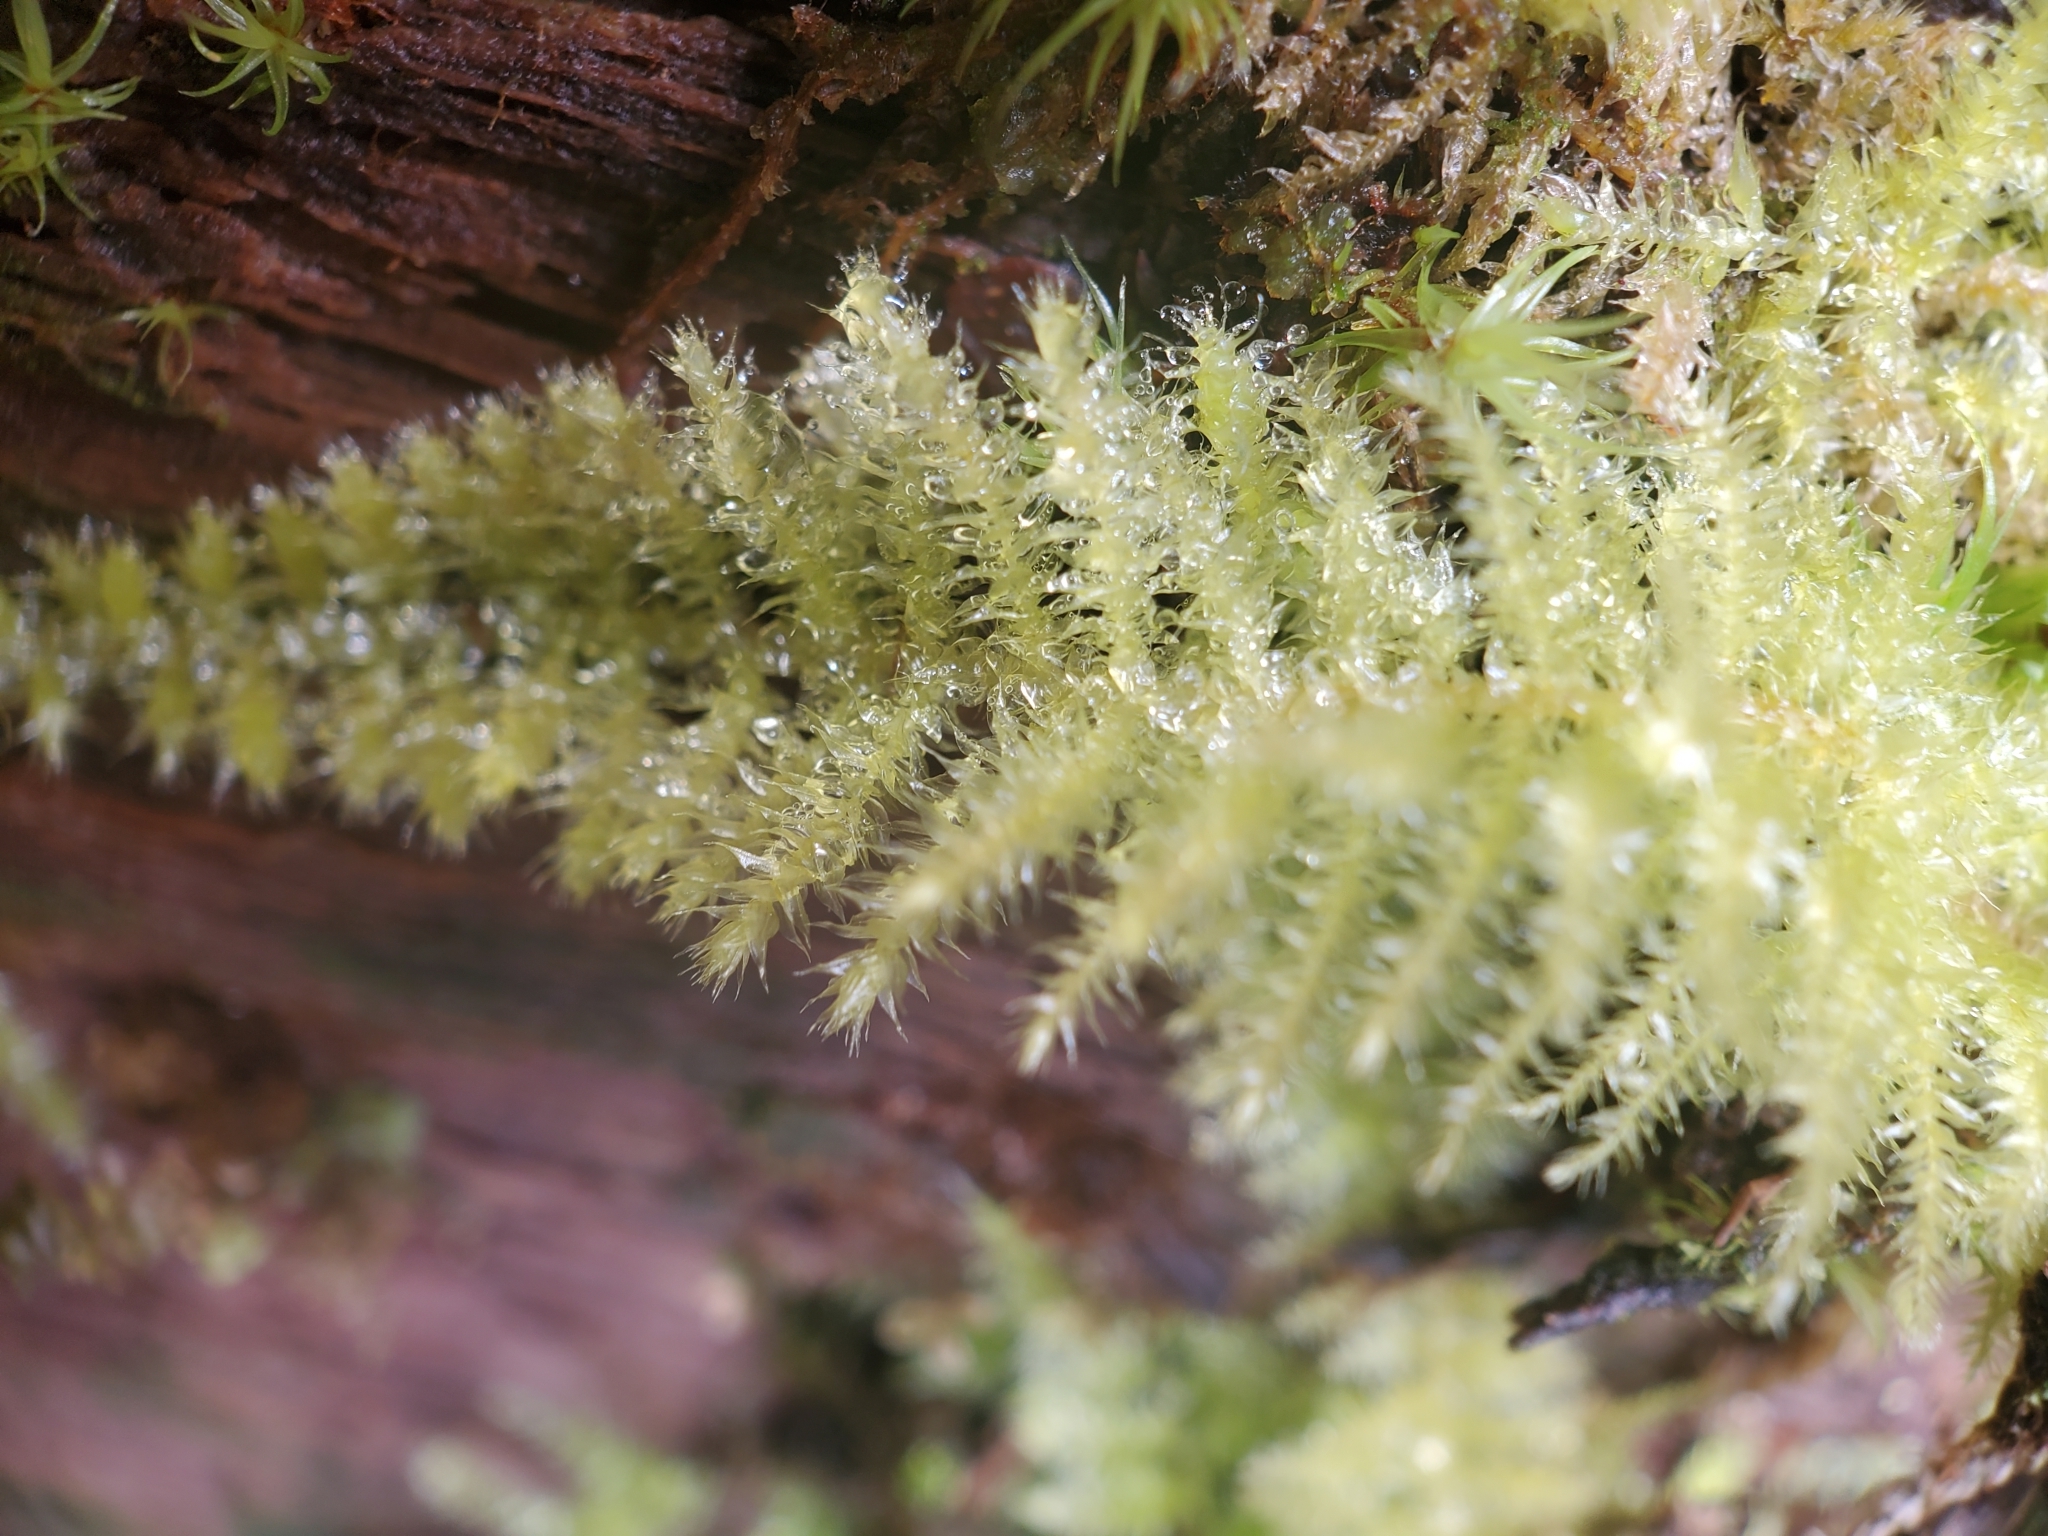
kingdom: Plantae
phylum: Bryophyta
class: Bryopsida
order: Hypnales
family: Brachytheciaceae
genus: Kindbergia
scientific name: Kindbergia oregana
